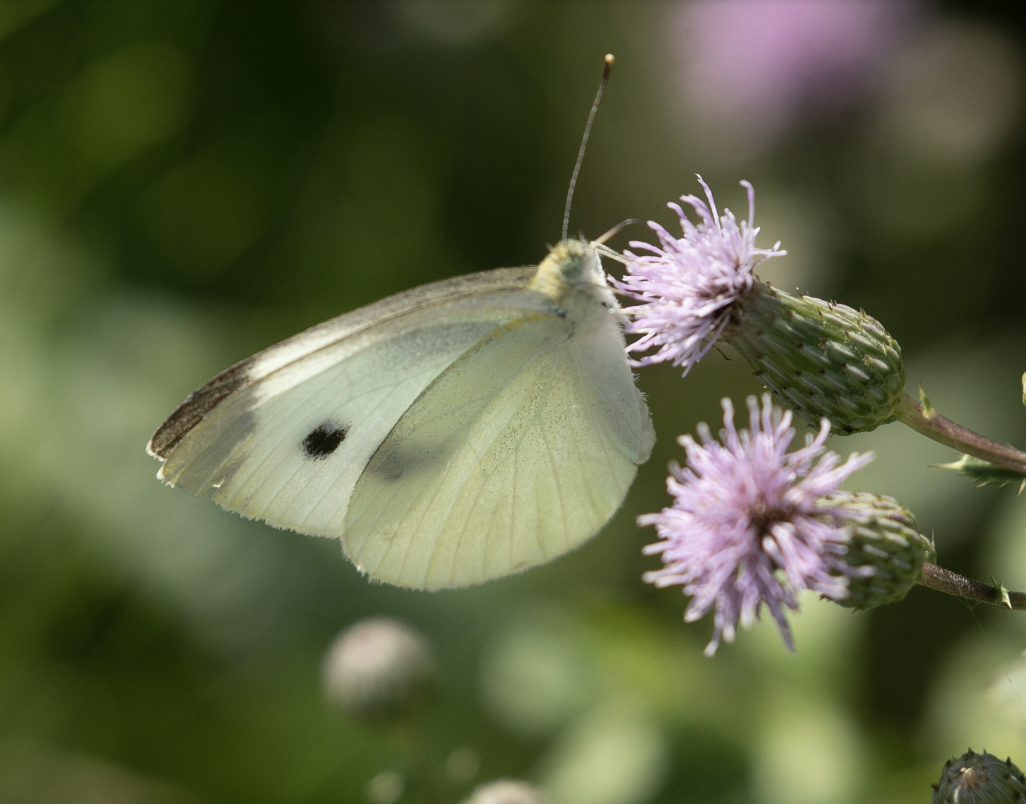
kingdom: Animalia
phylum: Arthropoda
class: Insecta
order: Lepidoptera
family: Pieridae
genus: Pieris
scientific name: Pieris rapae
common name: Small white
